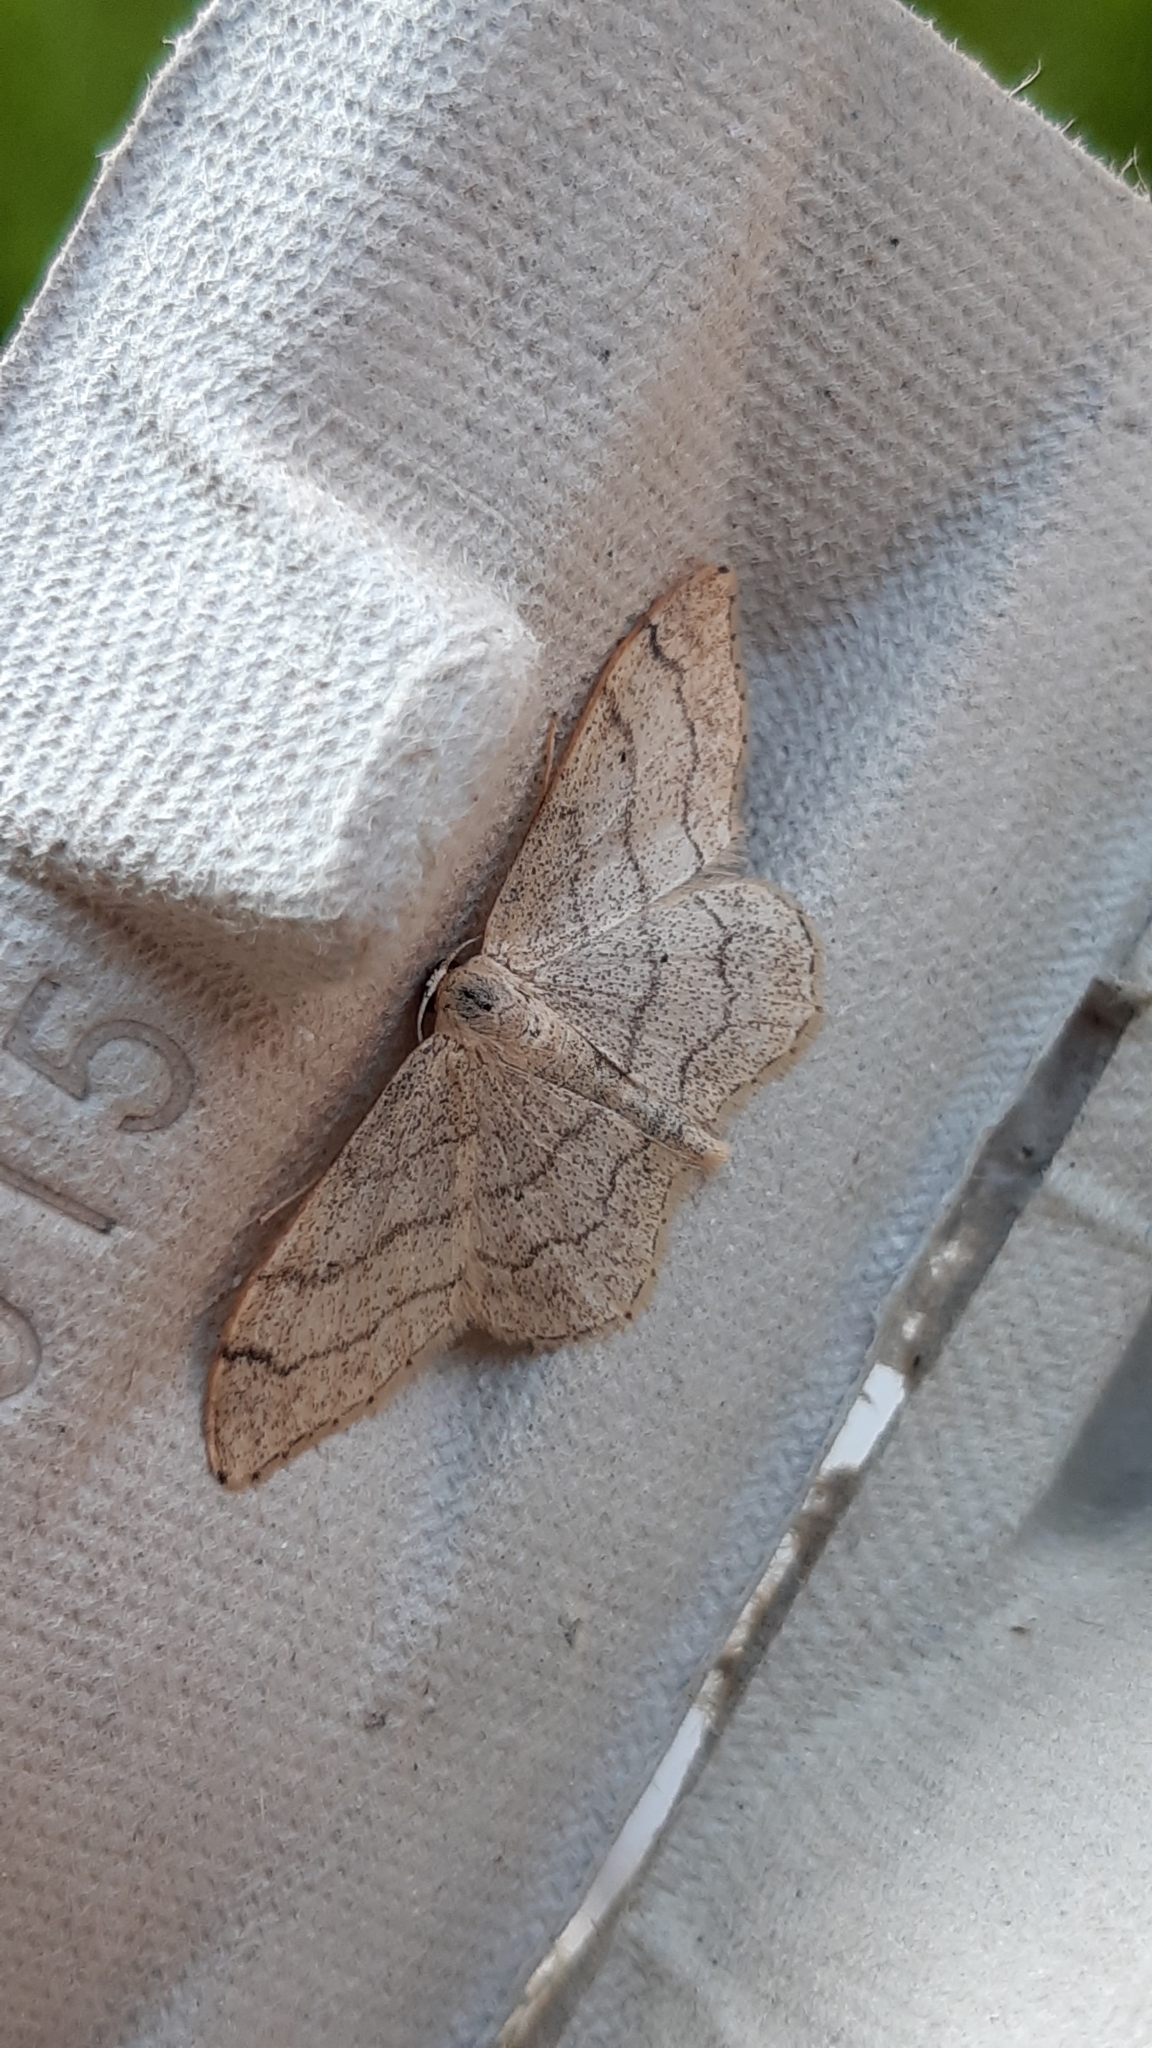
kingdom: Animalia
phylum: Arthropoda
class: Insecta
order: Lepidoptera
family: Geometridae
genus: Idaea
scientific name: Idaea aversata
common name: Riband wave
